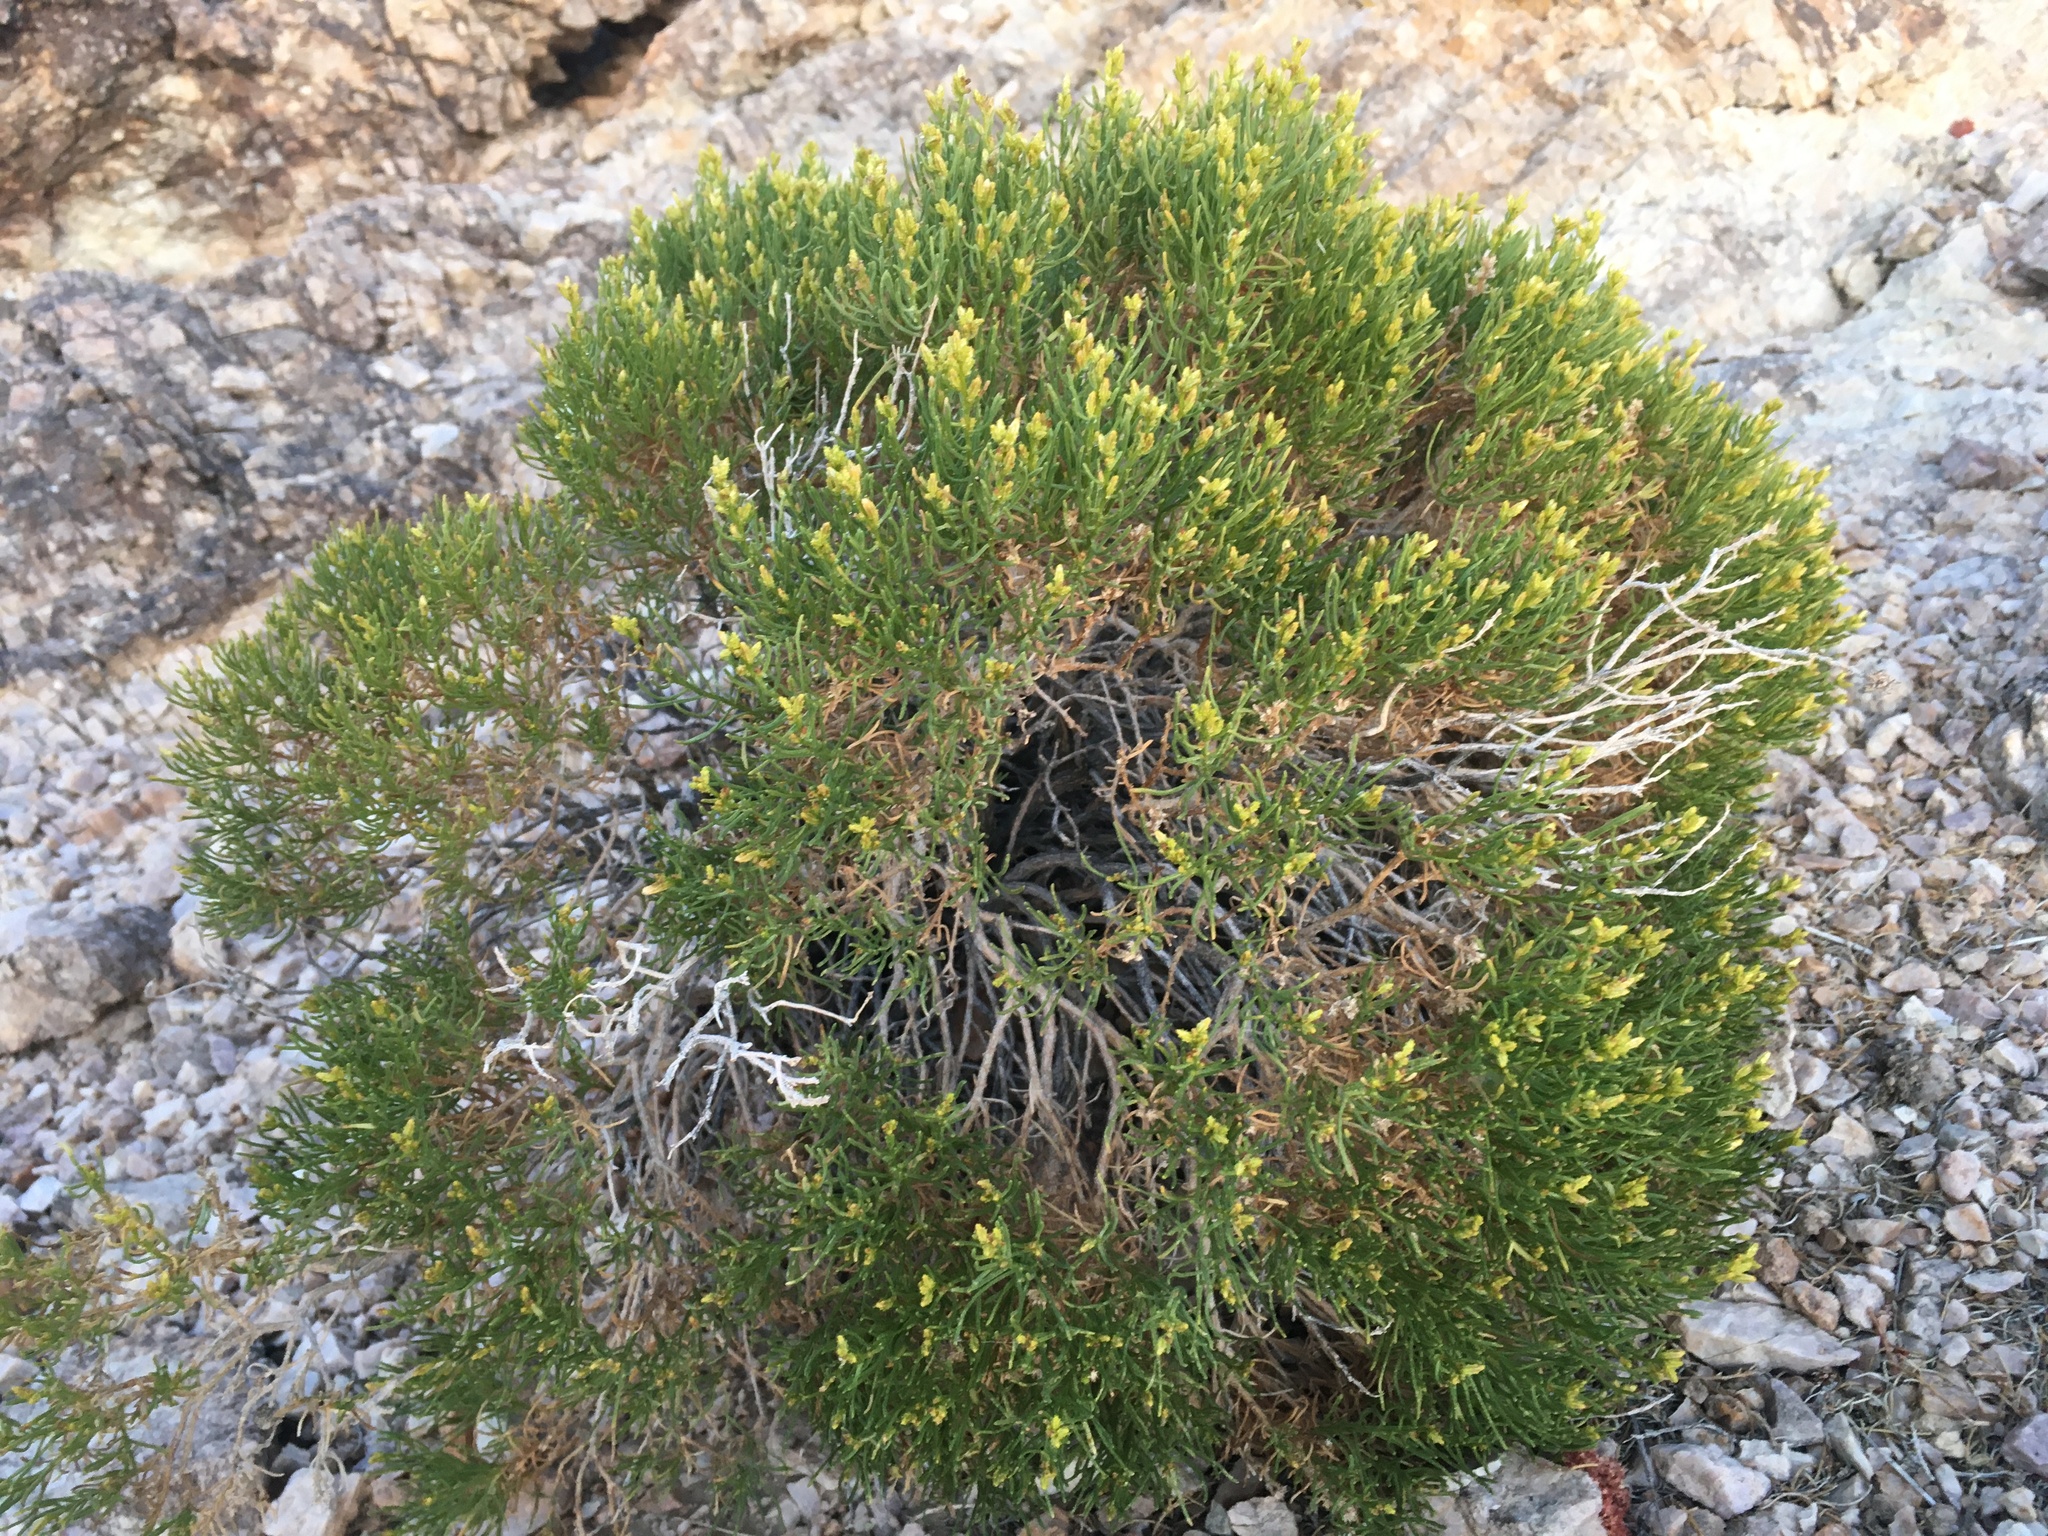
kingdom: Plantae
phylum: Tracheophyta
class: Magnoliopsida
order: Asterales
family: Asteraceae
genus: Ericameria
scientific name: Ericameria teretifolia
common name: Round-leaf rabbitbrush
